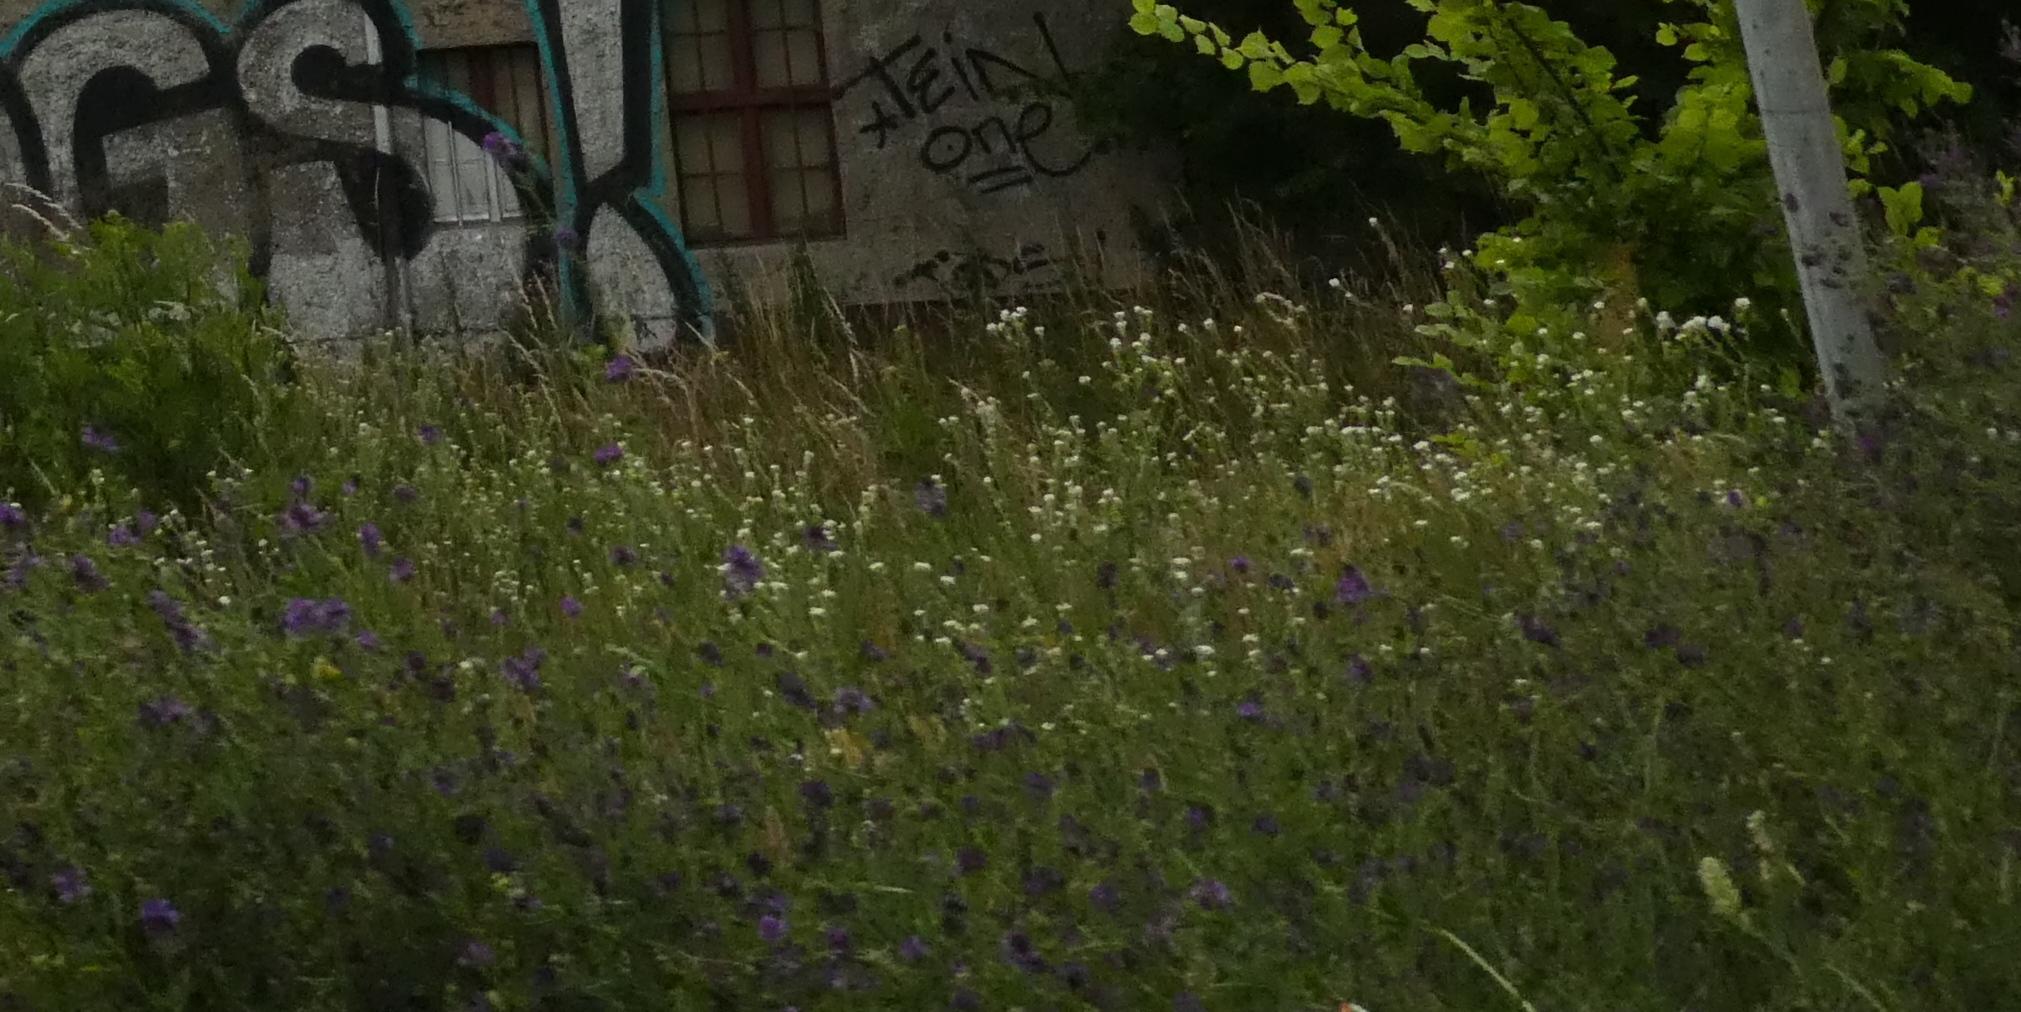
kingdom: Plantae
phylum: Tracheophyta
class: Magnoliopsida
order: Brassicales
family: Brassicaceae
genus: Berteroa
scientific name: Berteroa incana
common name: Hoary alison
